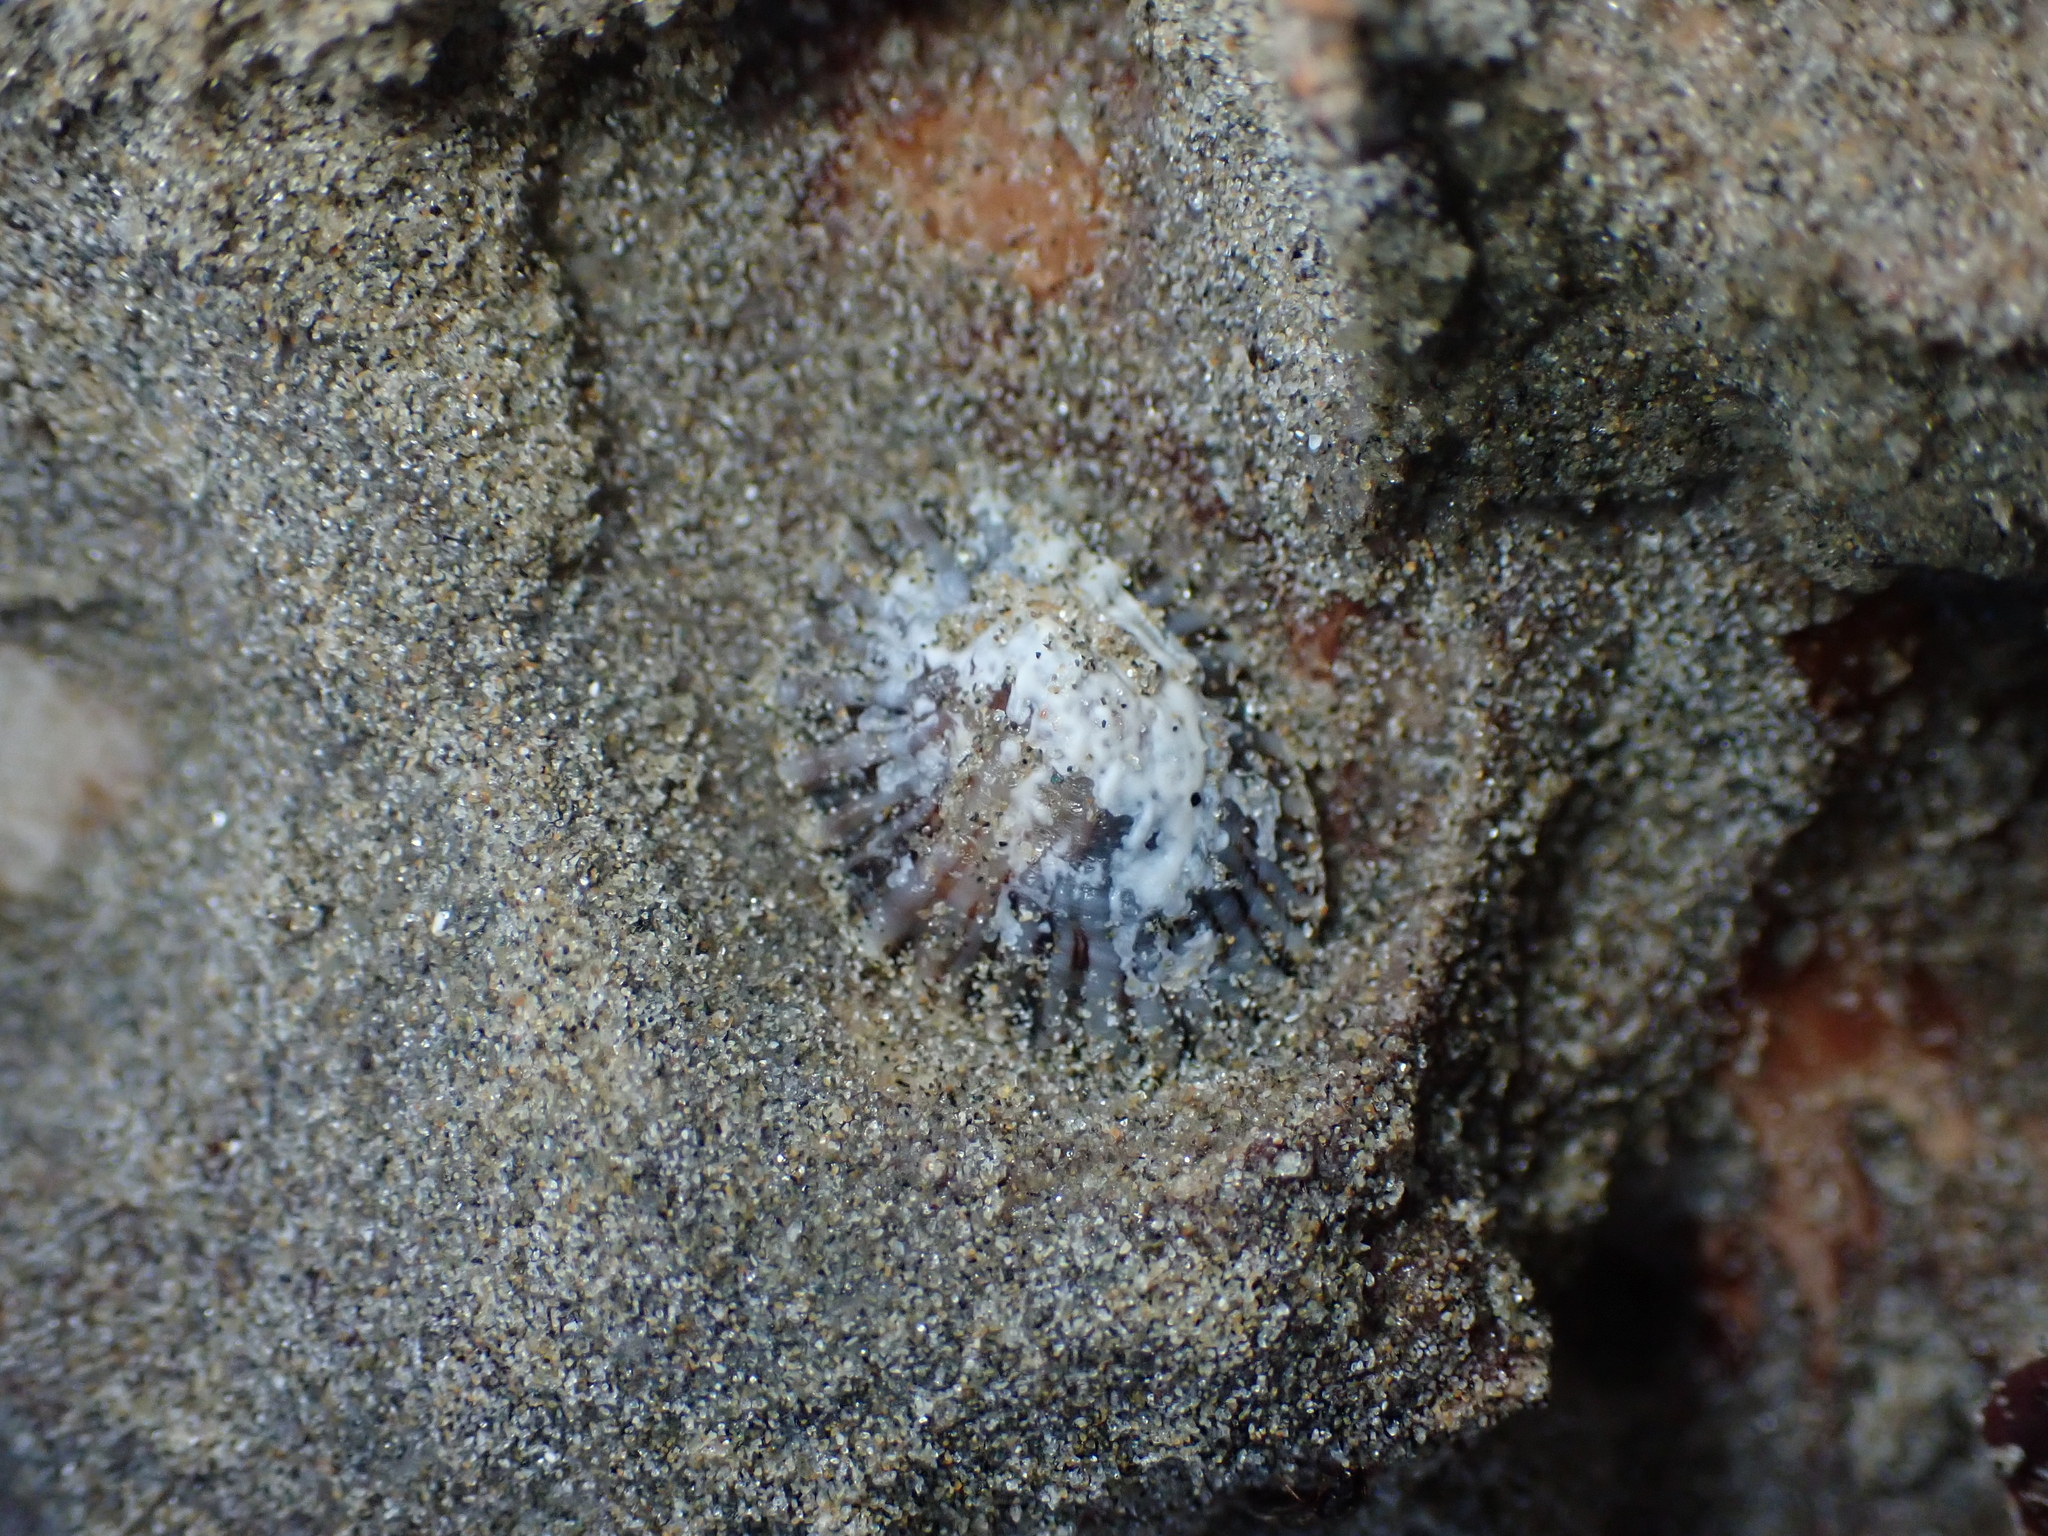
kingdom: Animalia
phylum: Mollusca
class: Gastropoda
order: Siphonariida
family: Siphonariidae
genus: Siphonaria
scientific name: Siphonaria australis
